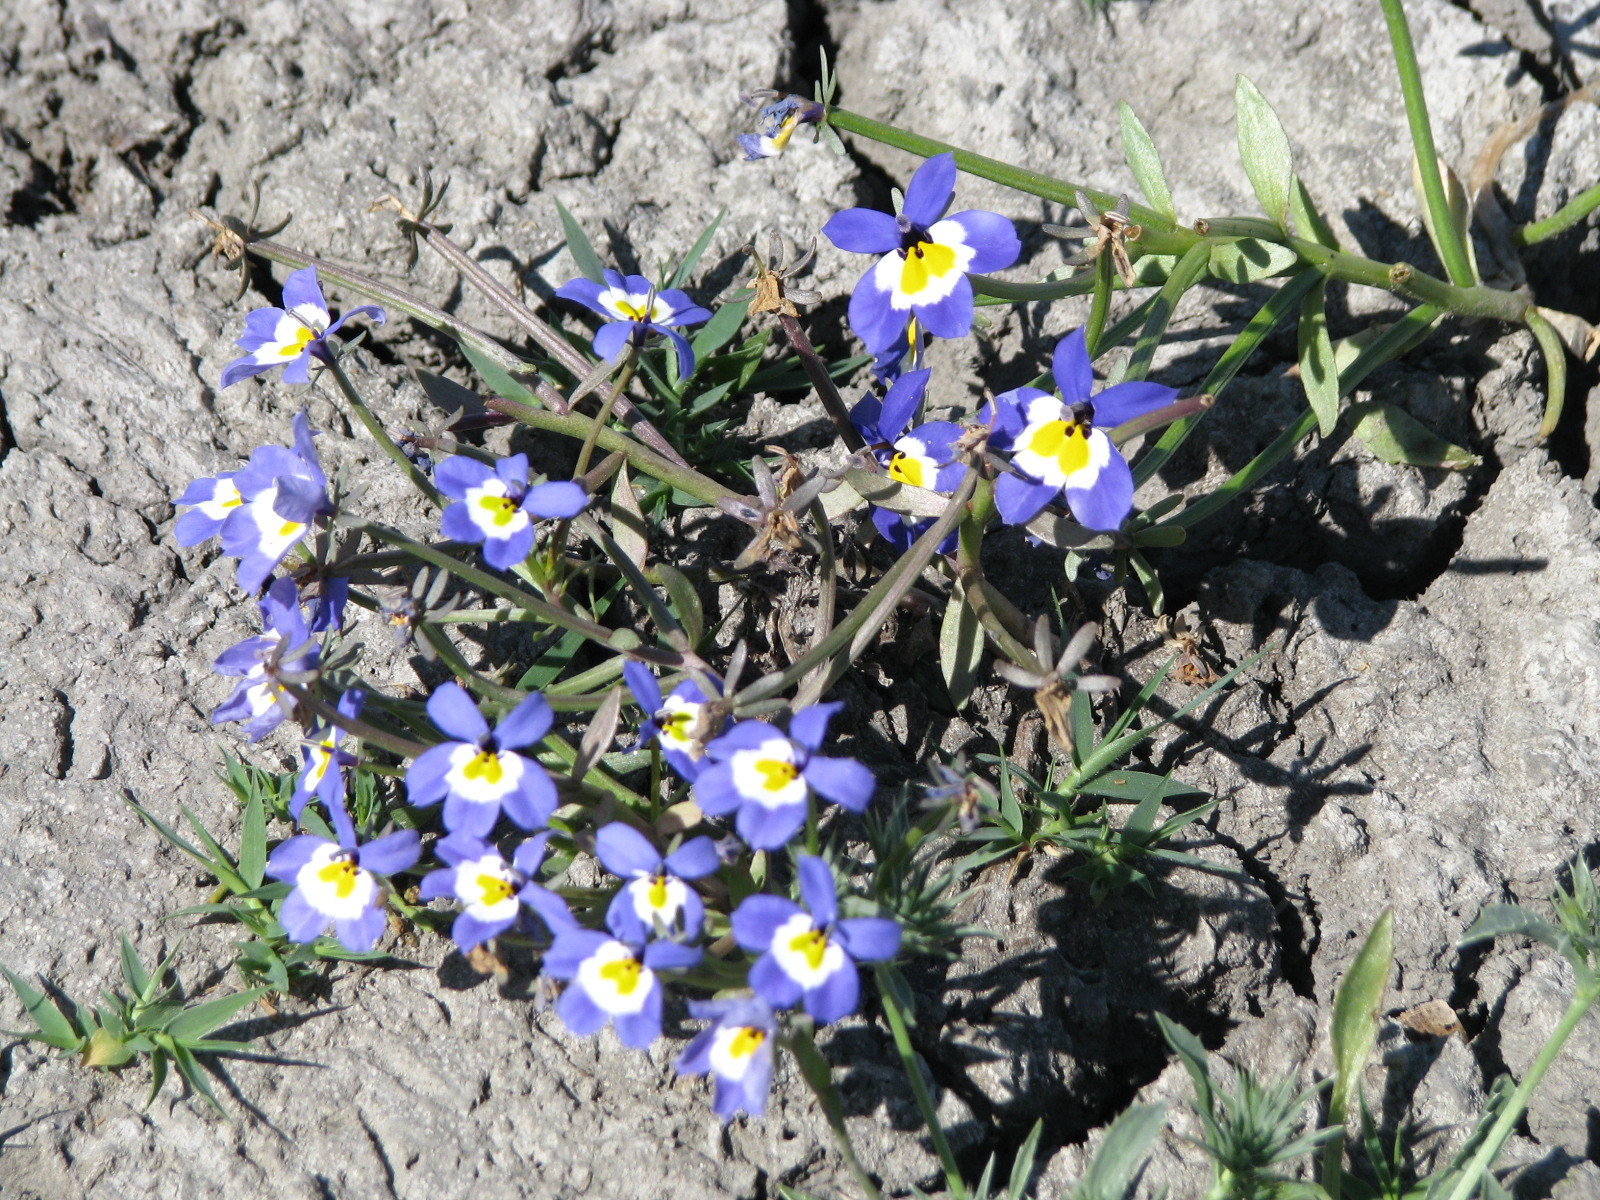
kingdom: Plantae
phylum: Tracheophyta
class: Magnoliopsida
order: Asterales
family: Campanulaceae
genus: Downingia
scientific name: Downingia pulchella
